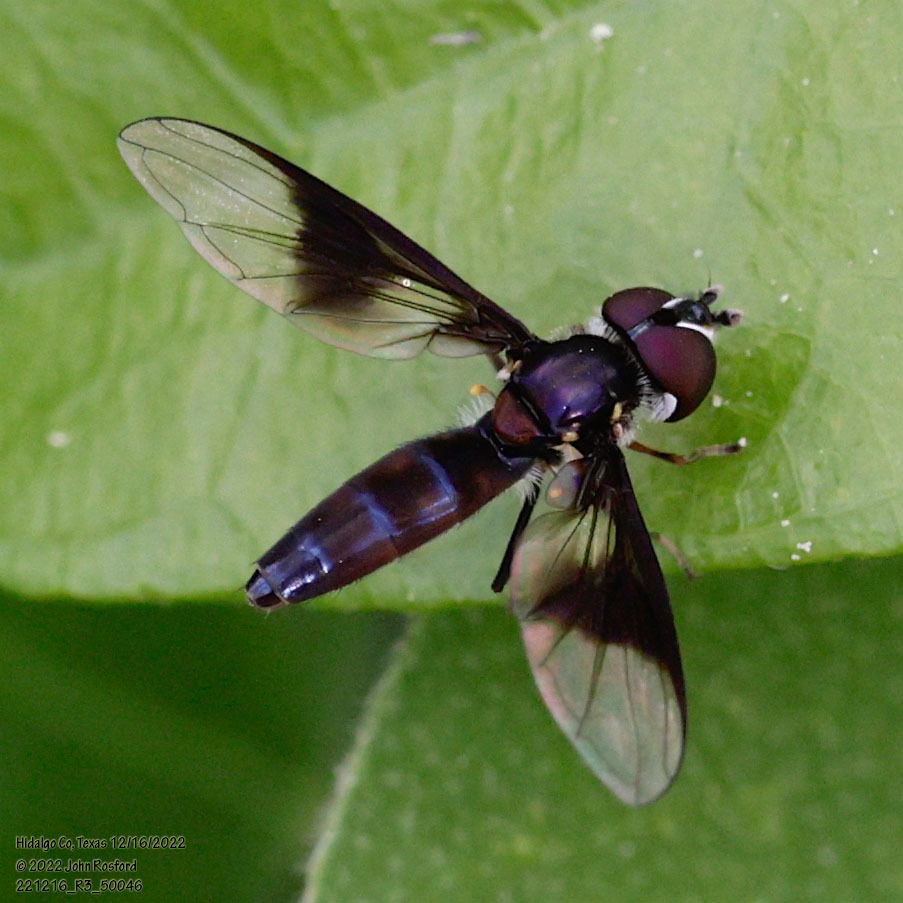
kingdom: Animalia
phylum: Arthropoda
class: Insecta
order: Diptera
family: Syrphidae
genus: Ocyptamus
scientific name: Ocyptamus dimidiatus
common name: Syrphid fly
